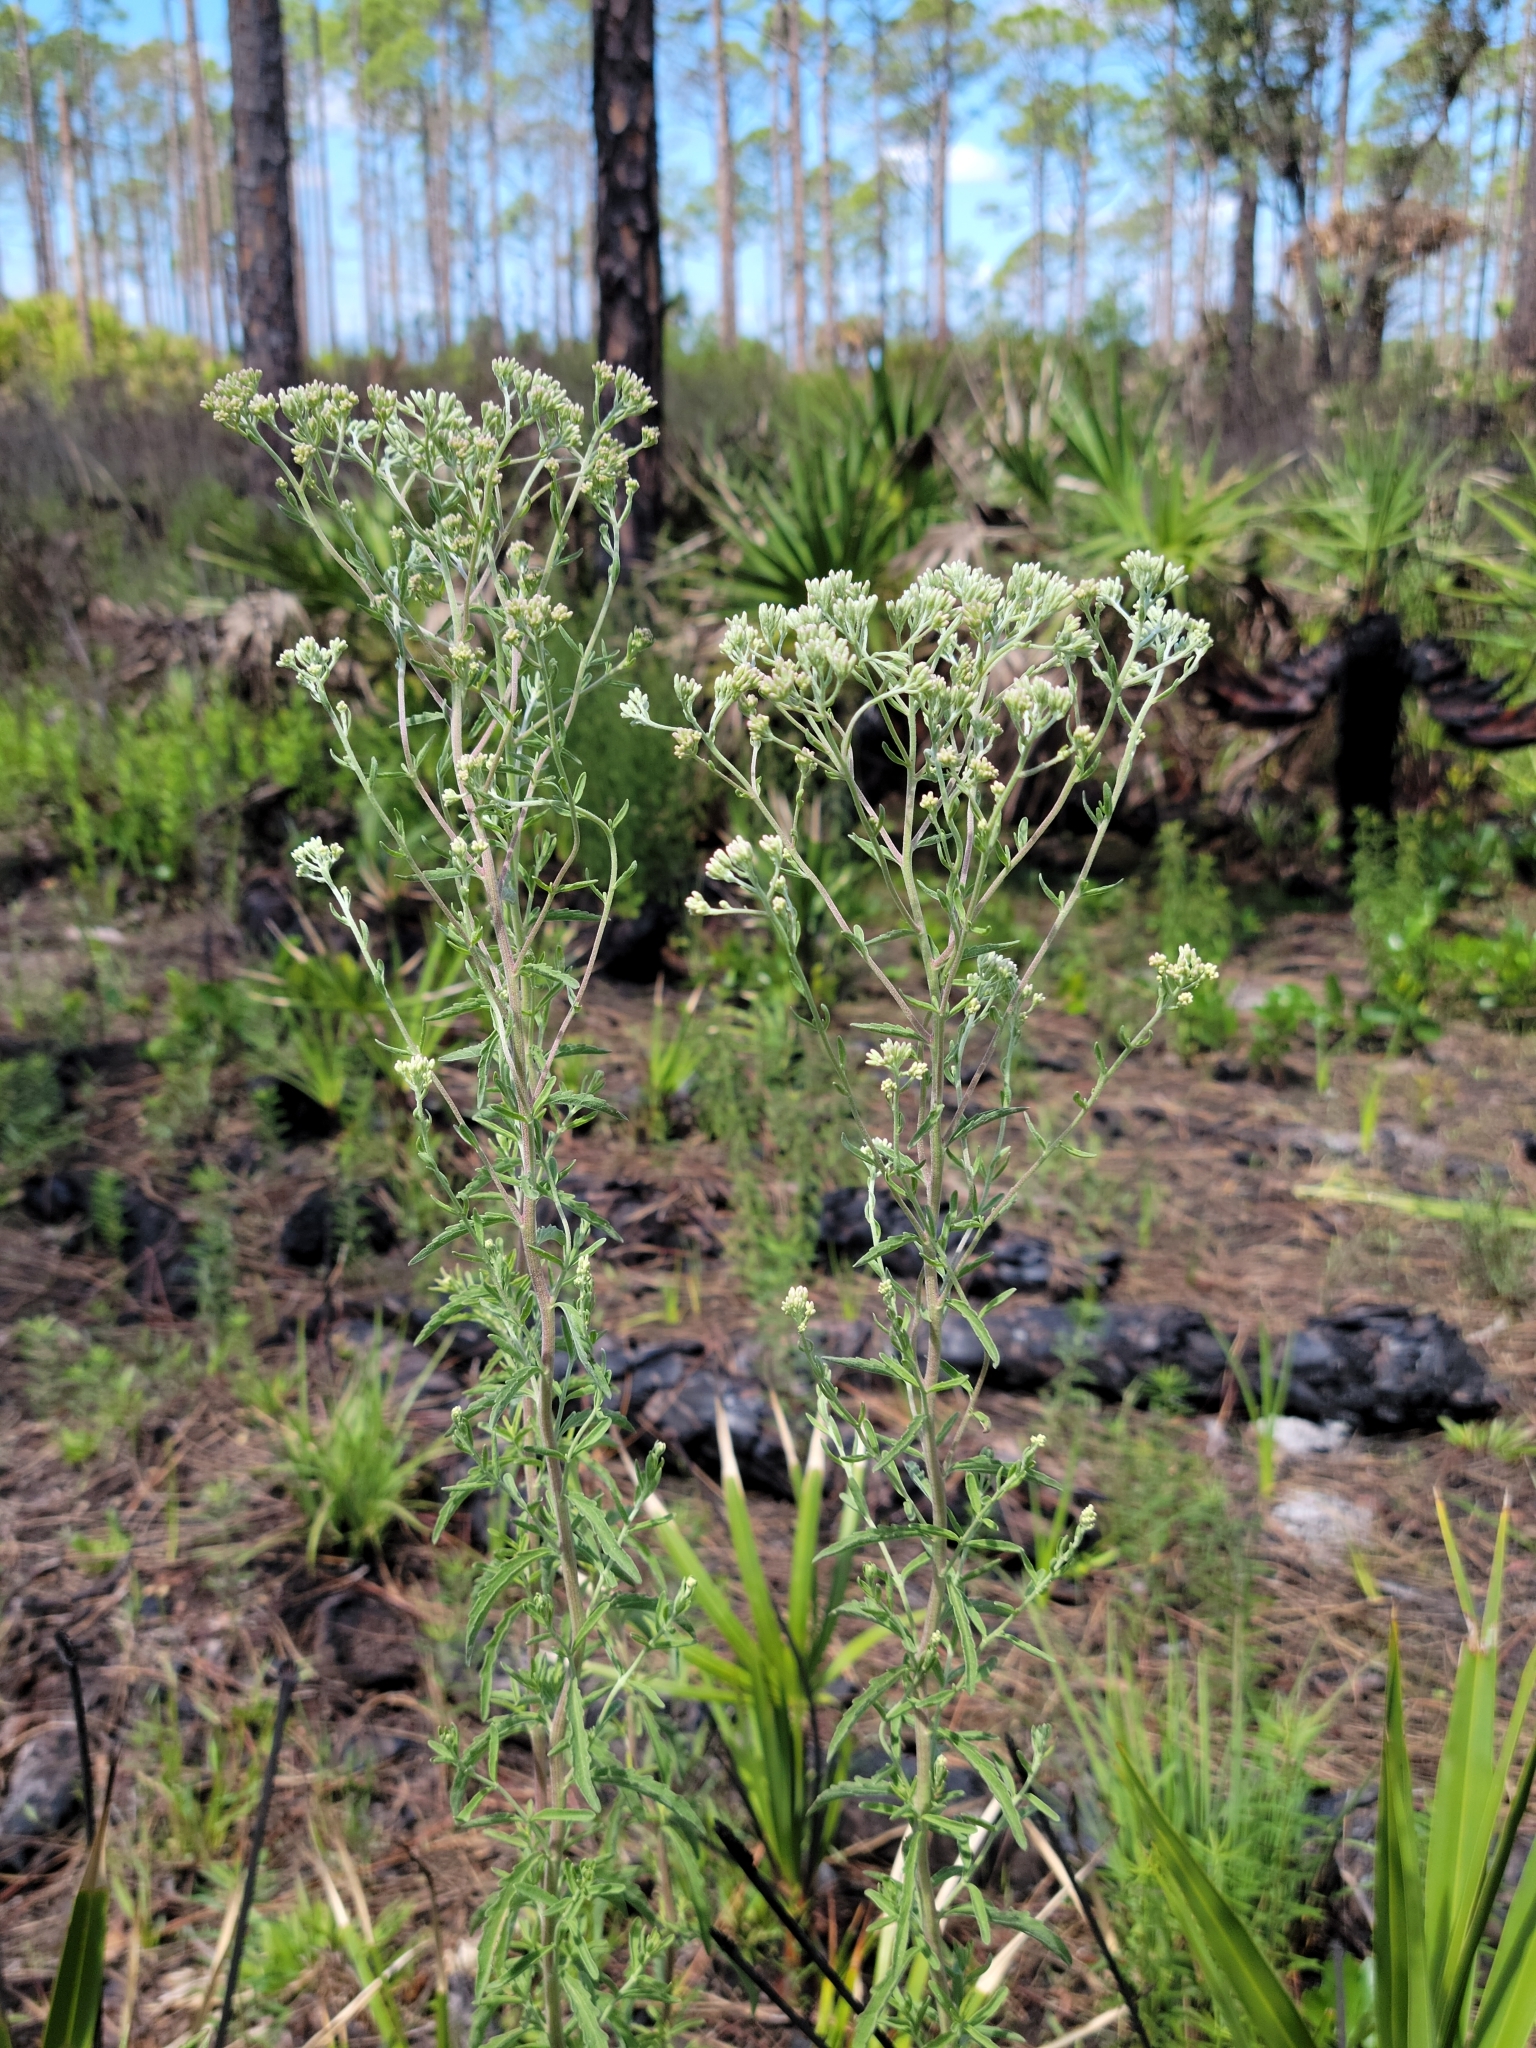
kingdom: Plantae
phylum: Tracheophyta
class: Magnoliopsida
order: Asterales
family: Asteraceae
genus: Eupatorium
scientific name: Eupatorium mohrii
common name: Mohr's thoroughwort
